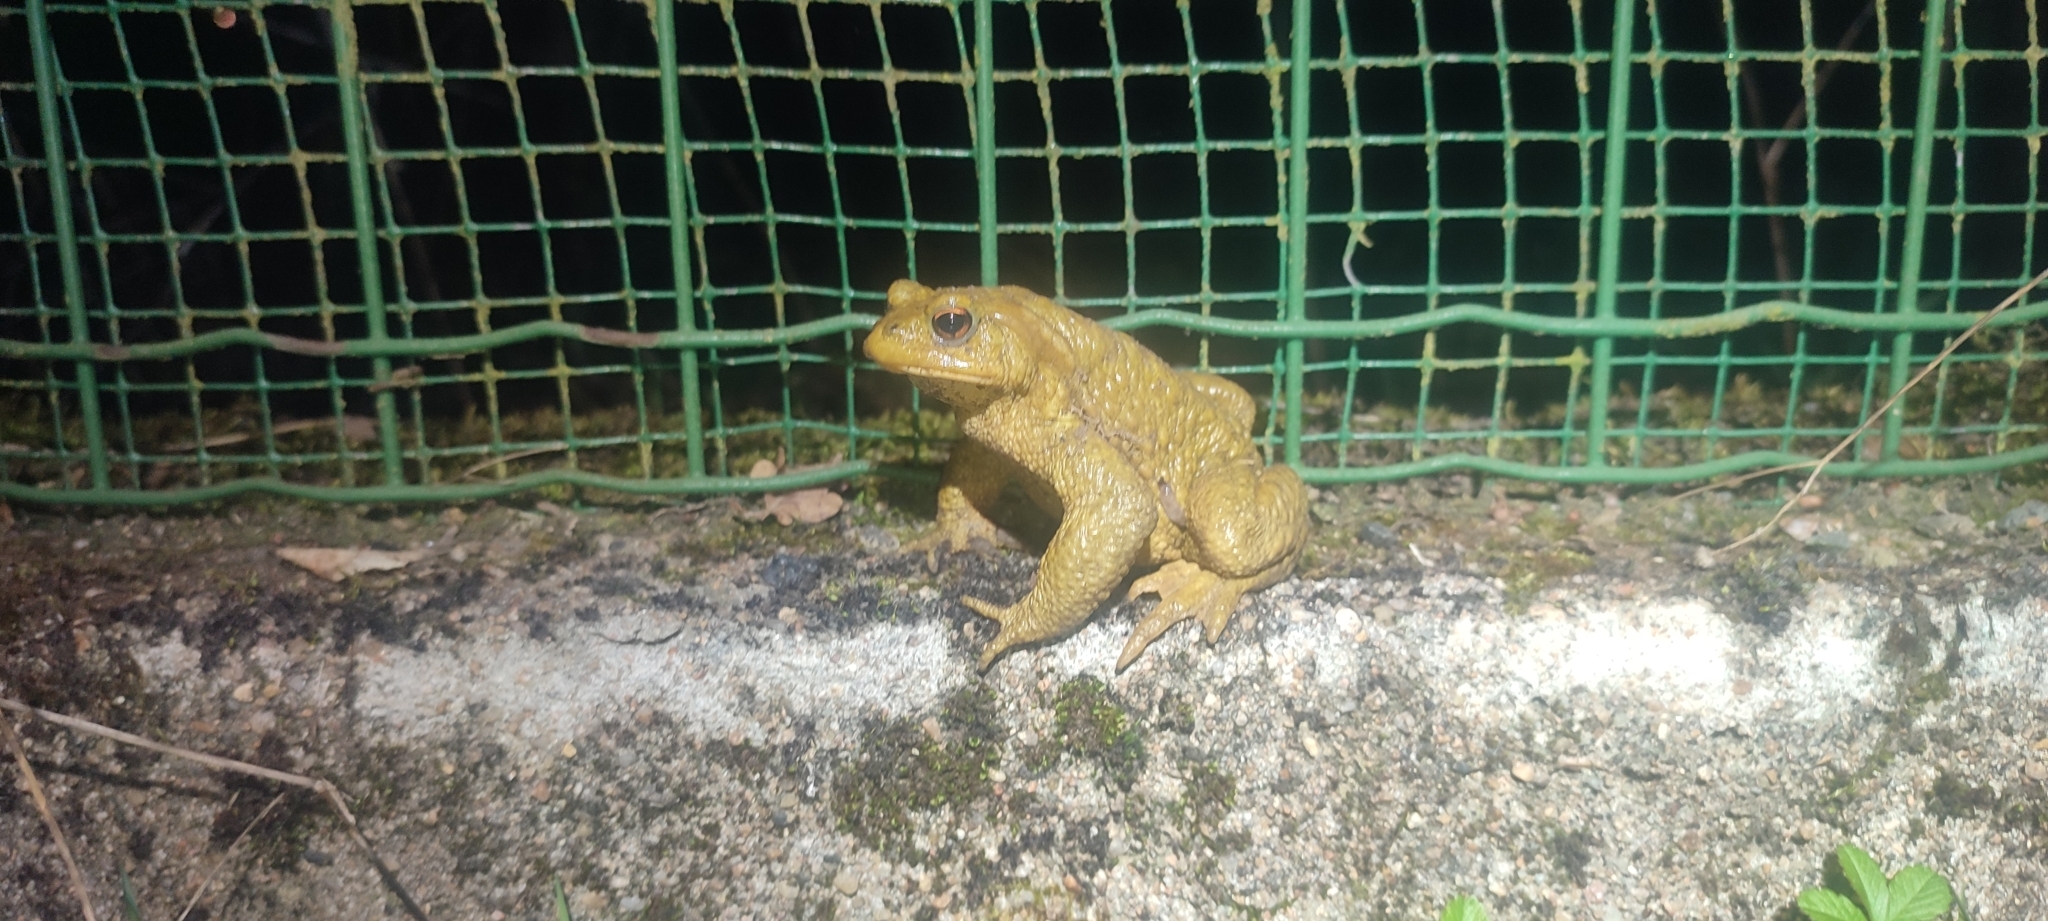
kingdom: Animalia
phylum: Chordata
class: Amphibia
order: Anura
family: Bufonidae
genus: Bufo
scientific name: Bufo spinosus
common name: Western common toad
